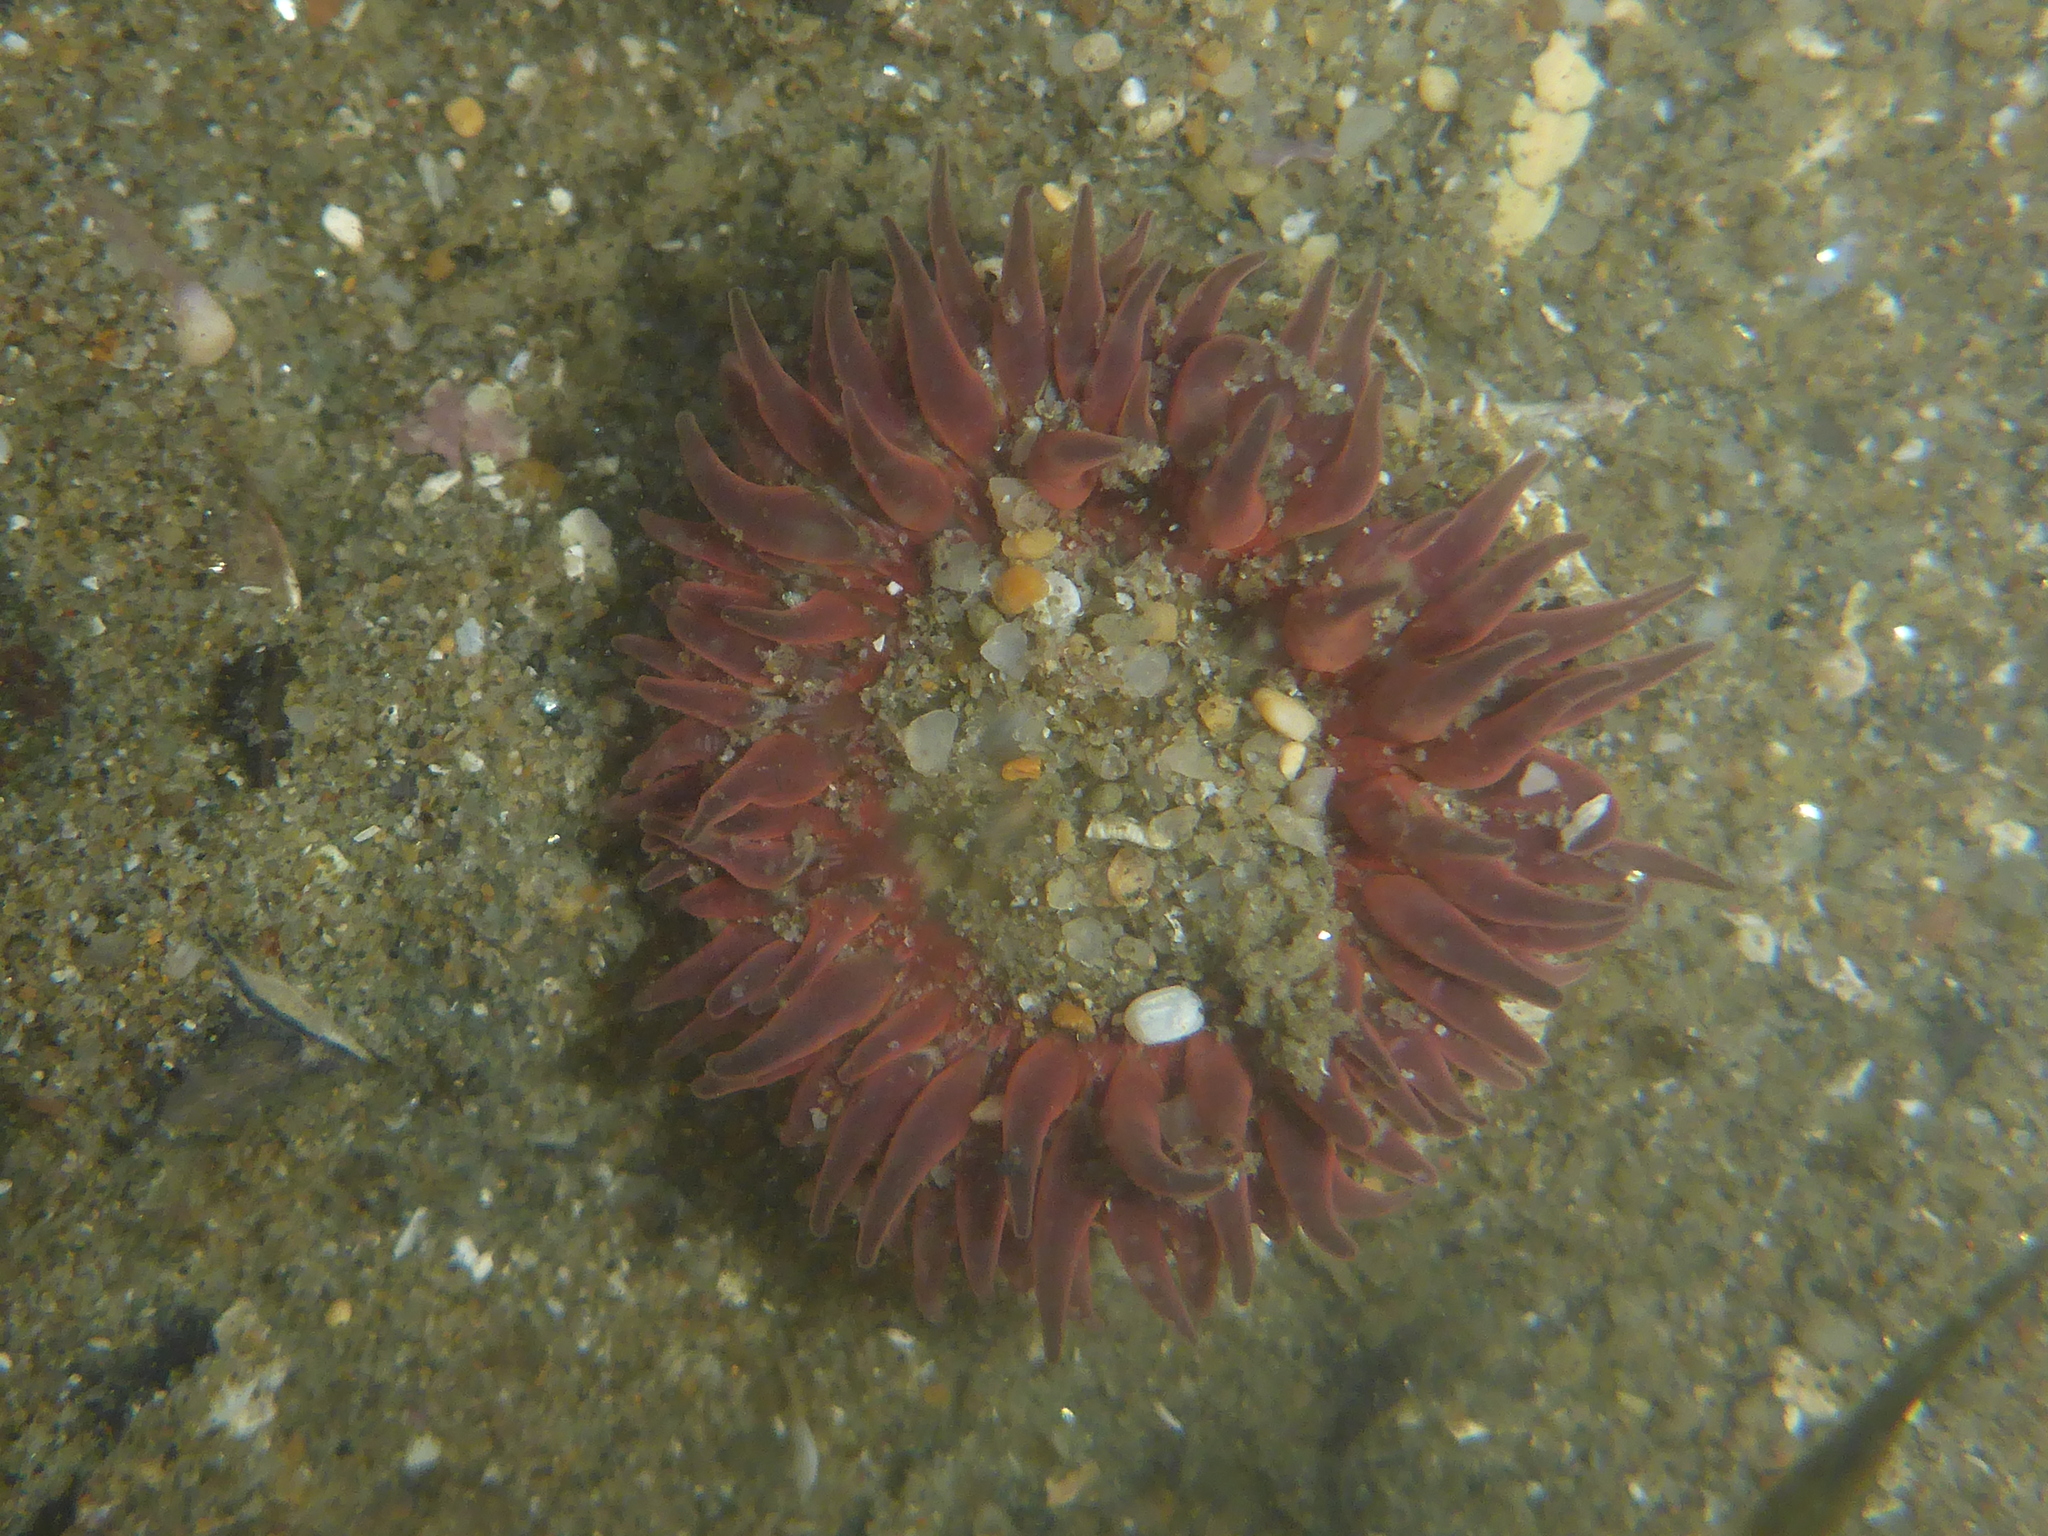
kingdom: Animalia
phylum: Cnidaria
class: Anthozoa
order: Actiniaria
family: Actiniidae
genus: Anthopleura
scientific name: Anthopleura artemisia
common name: Buried sea anemone
